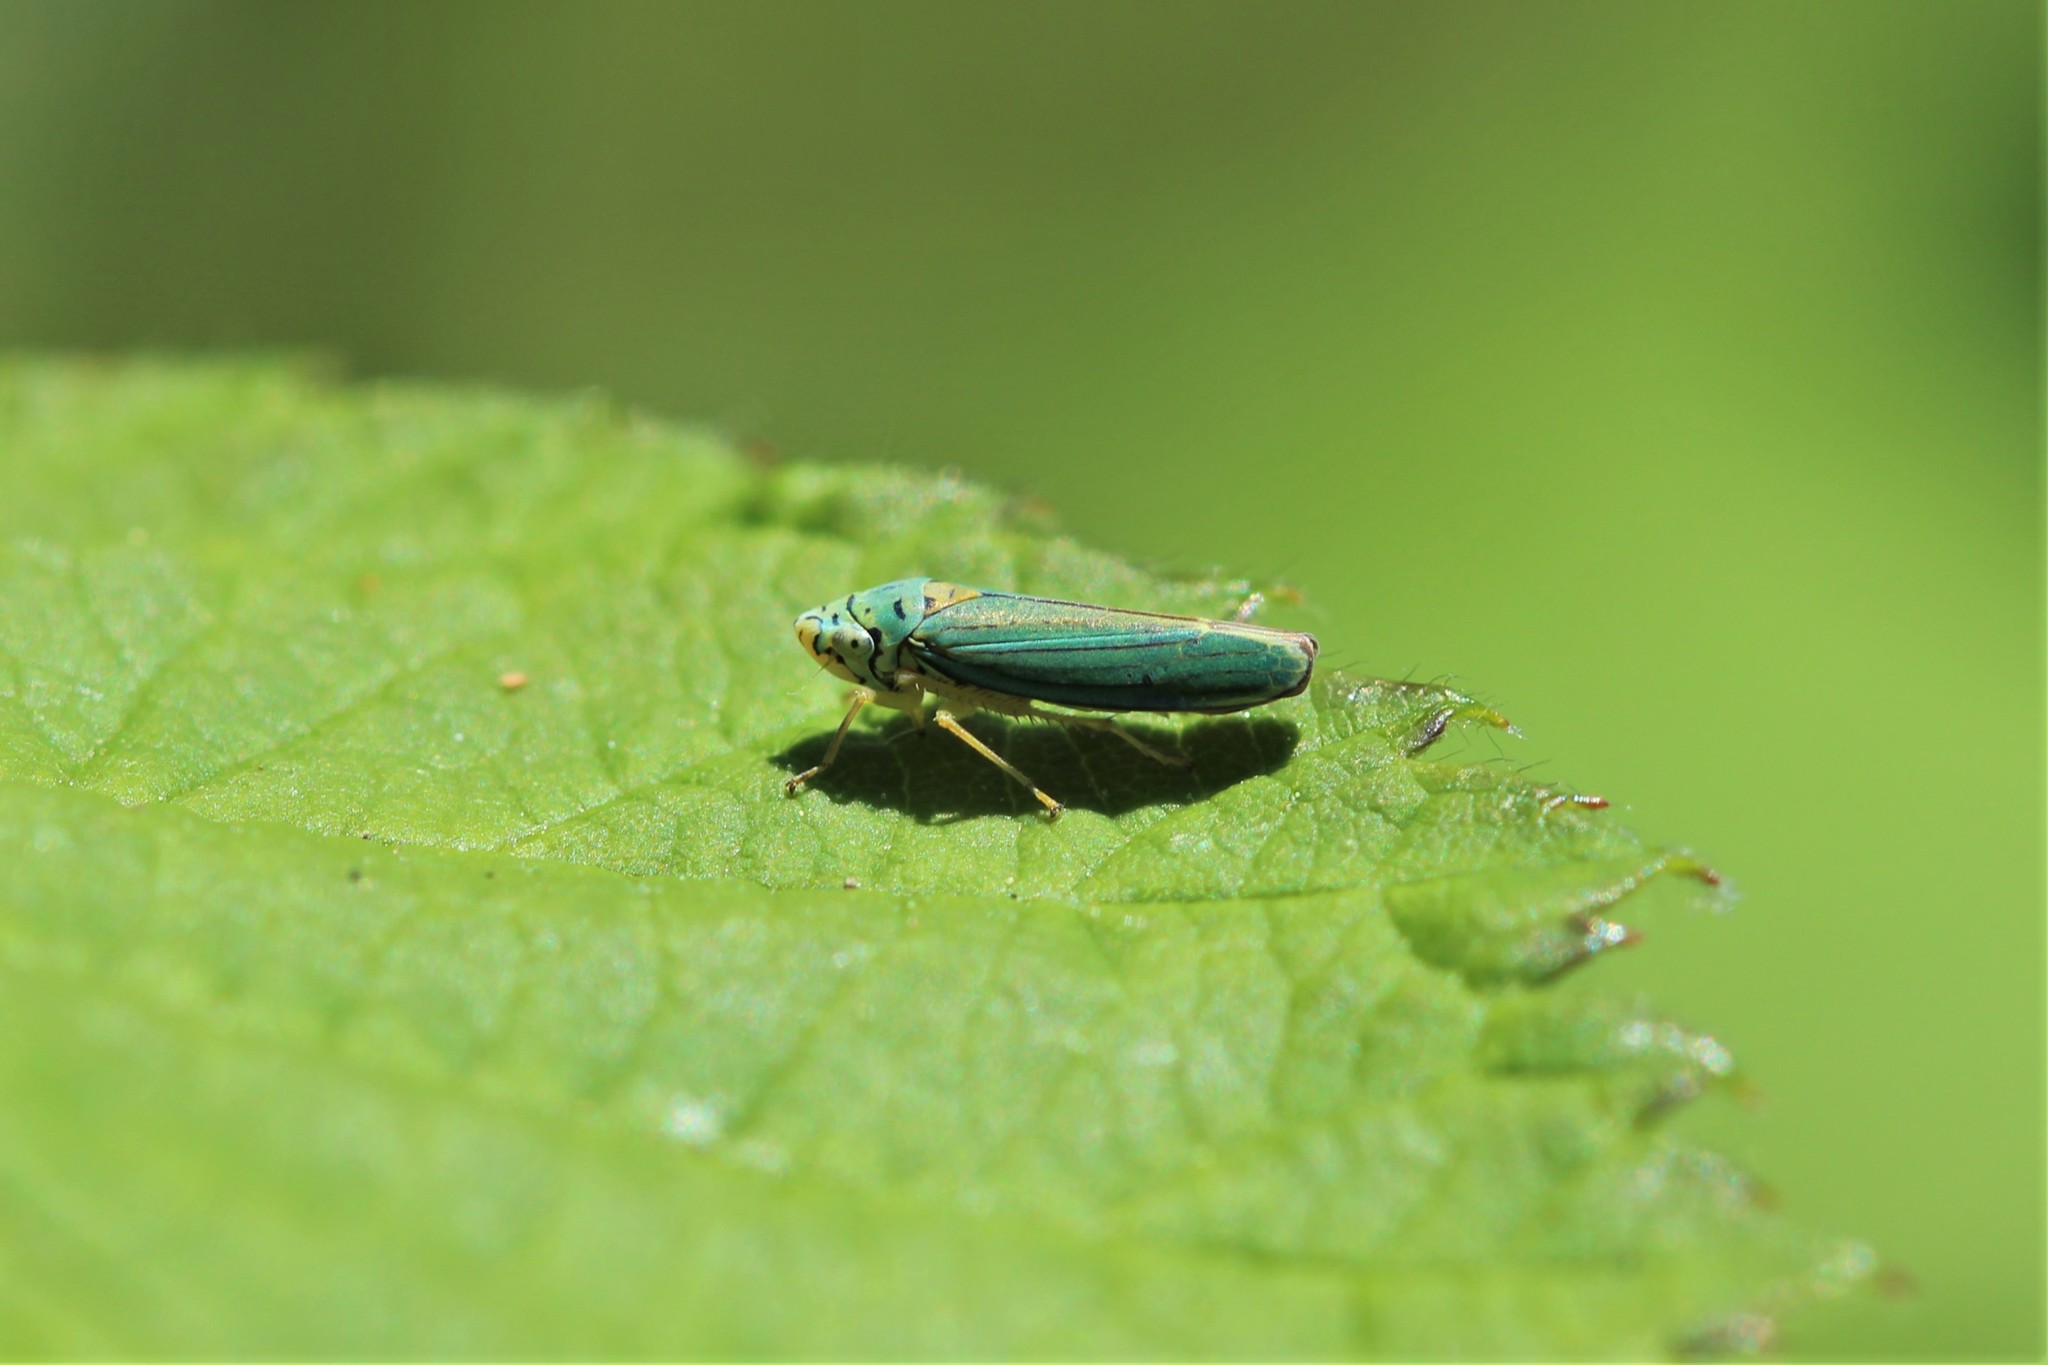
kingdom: Animalia
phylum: Arthropoda
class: Insecta
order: Hemiptera
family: Cicadellidae
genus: Graphocephala
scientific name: Graphocephala atropunctata
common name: Blue-green sharpshooter
